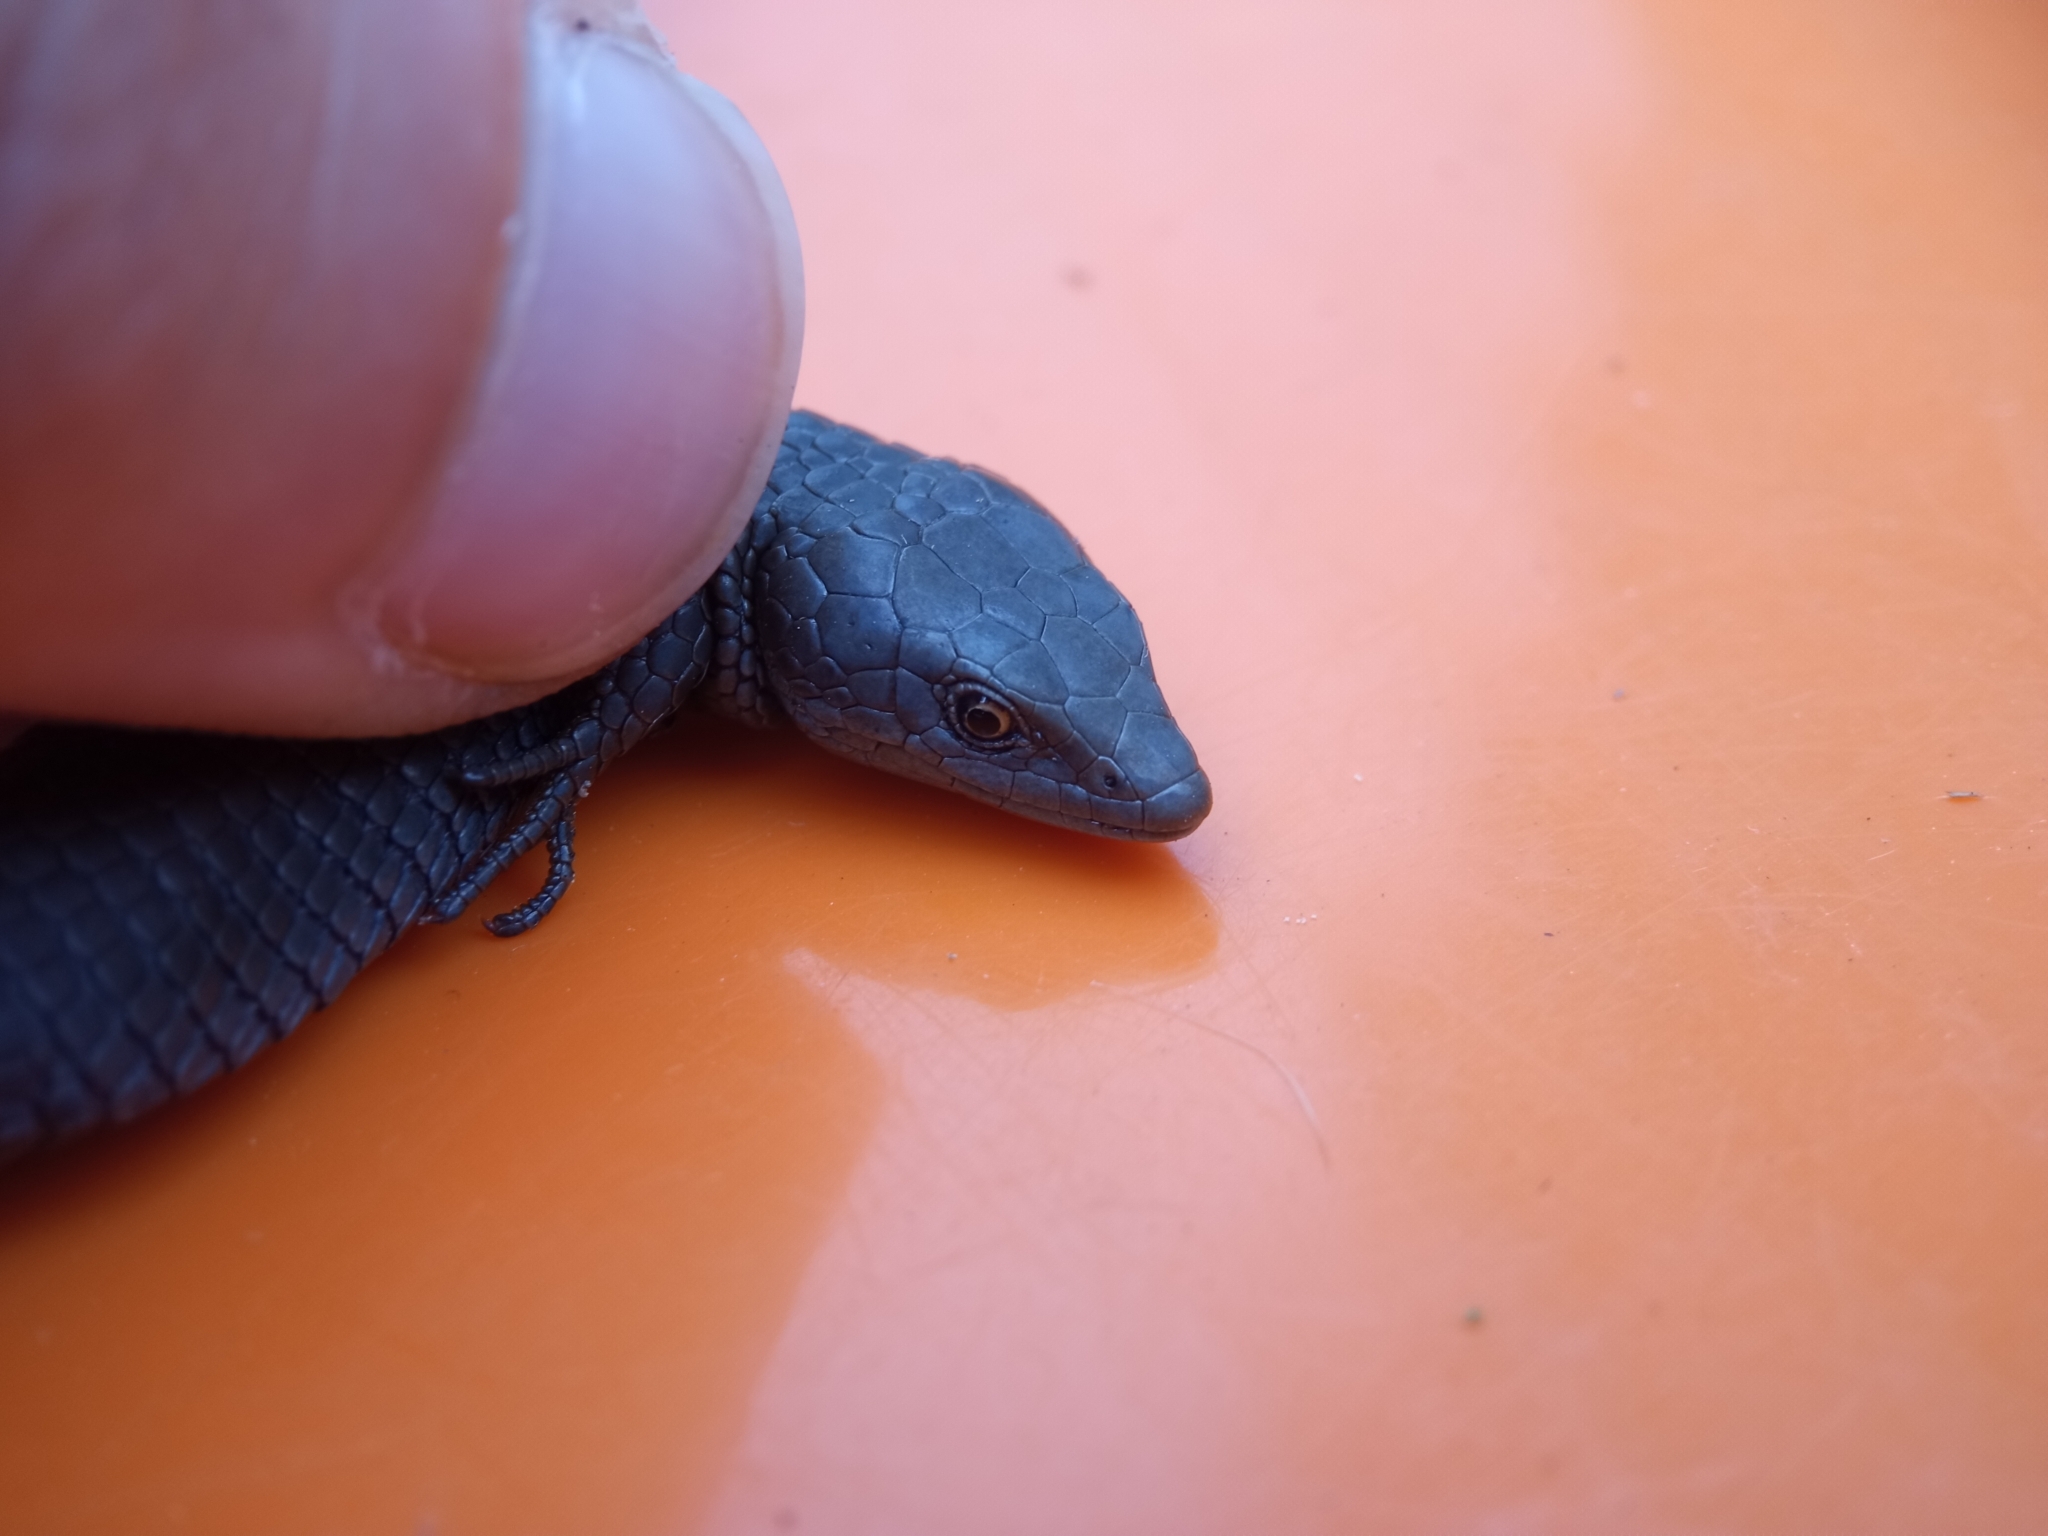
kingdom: Animalia
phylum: Chordata
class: Squamata
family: Gymnophthalmidae
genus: Anadia
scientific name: Anadia bogotensis
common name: Bogota anadia
